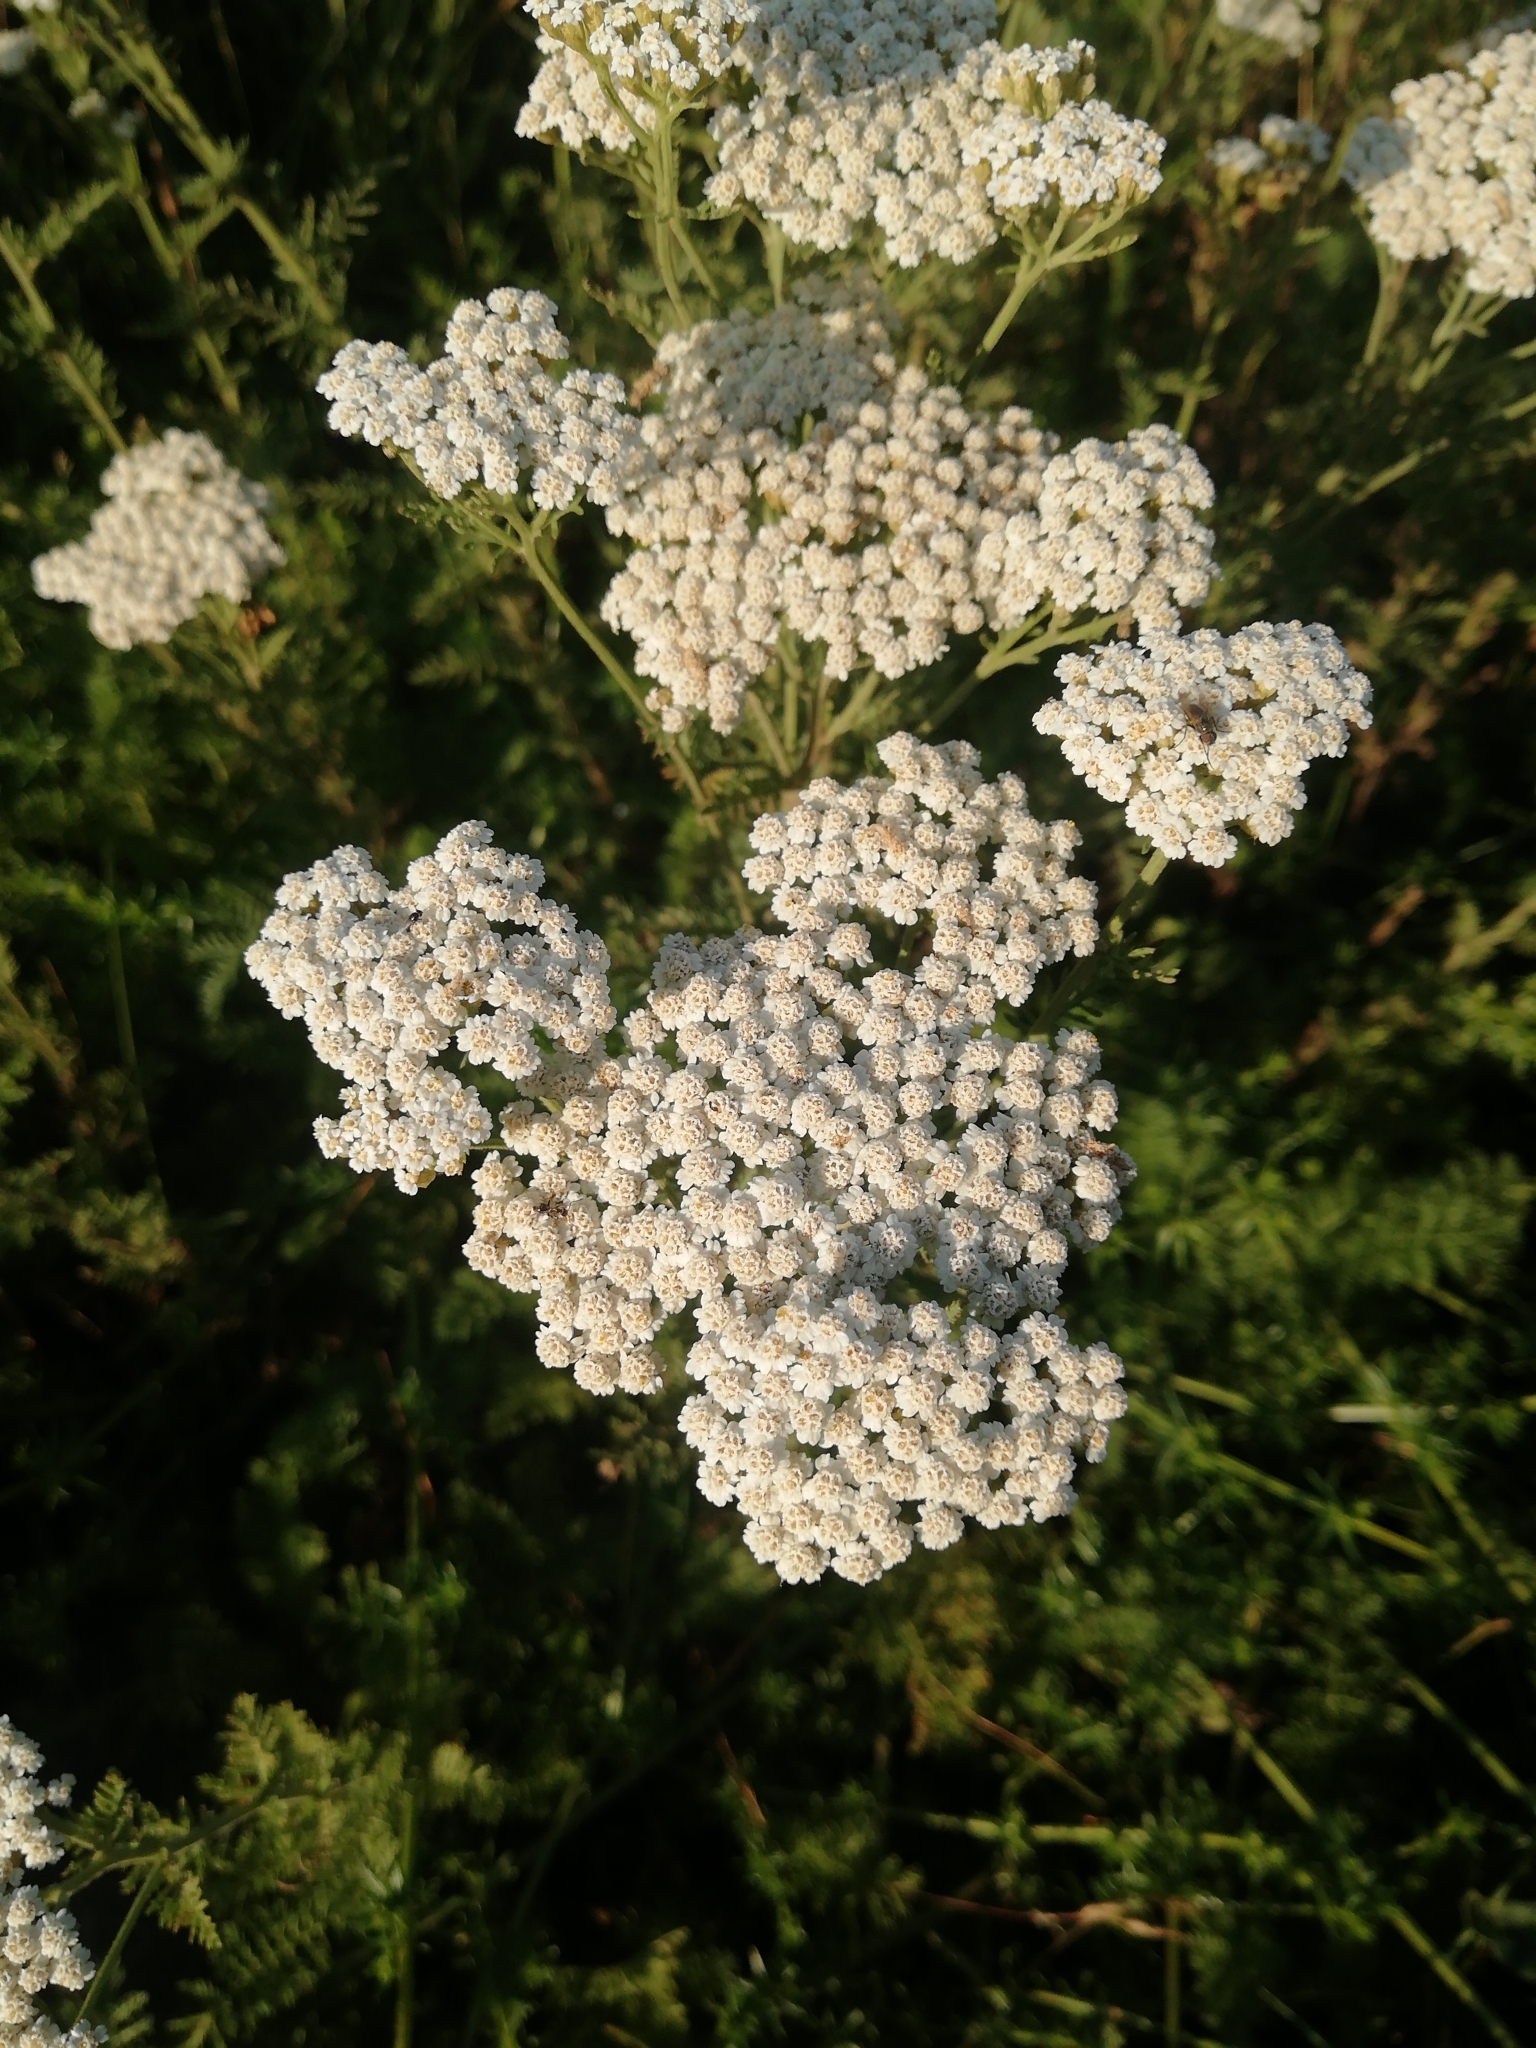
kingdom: Plantae
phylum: Tracheophyta
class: Magnoliopsida
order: Asterales
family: Asteraceae
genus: Achillea
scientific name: Achillea nobilis
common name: Noble yarrow
